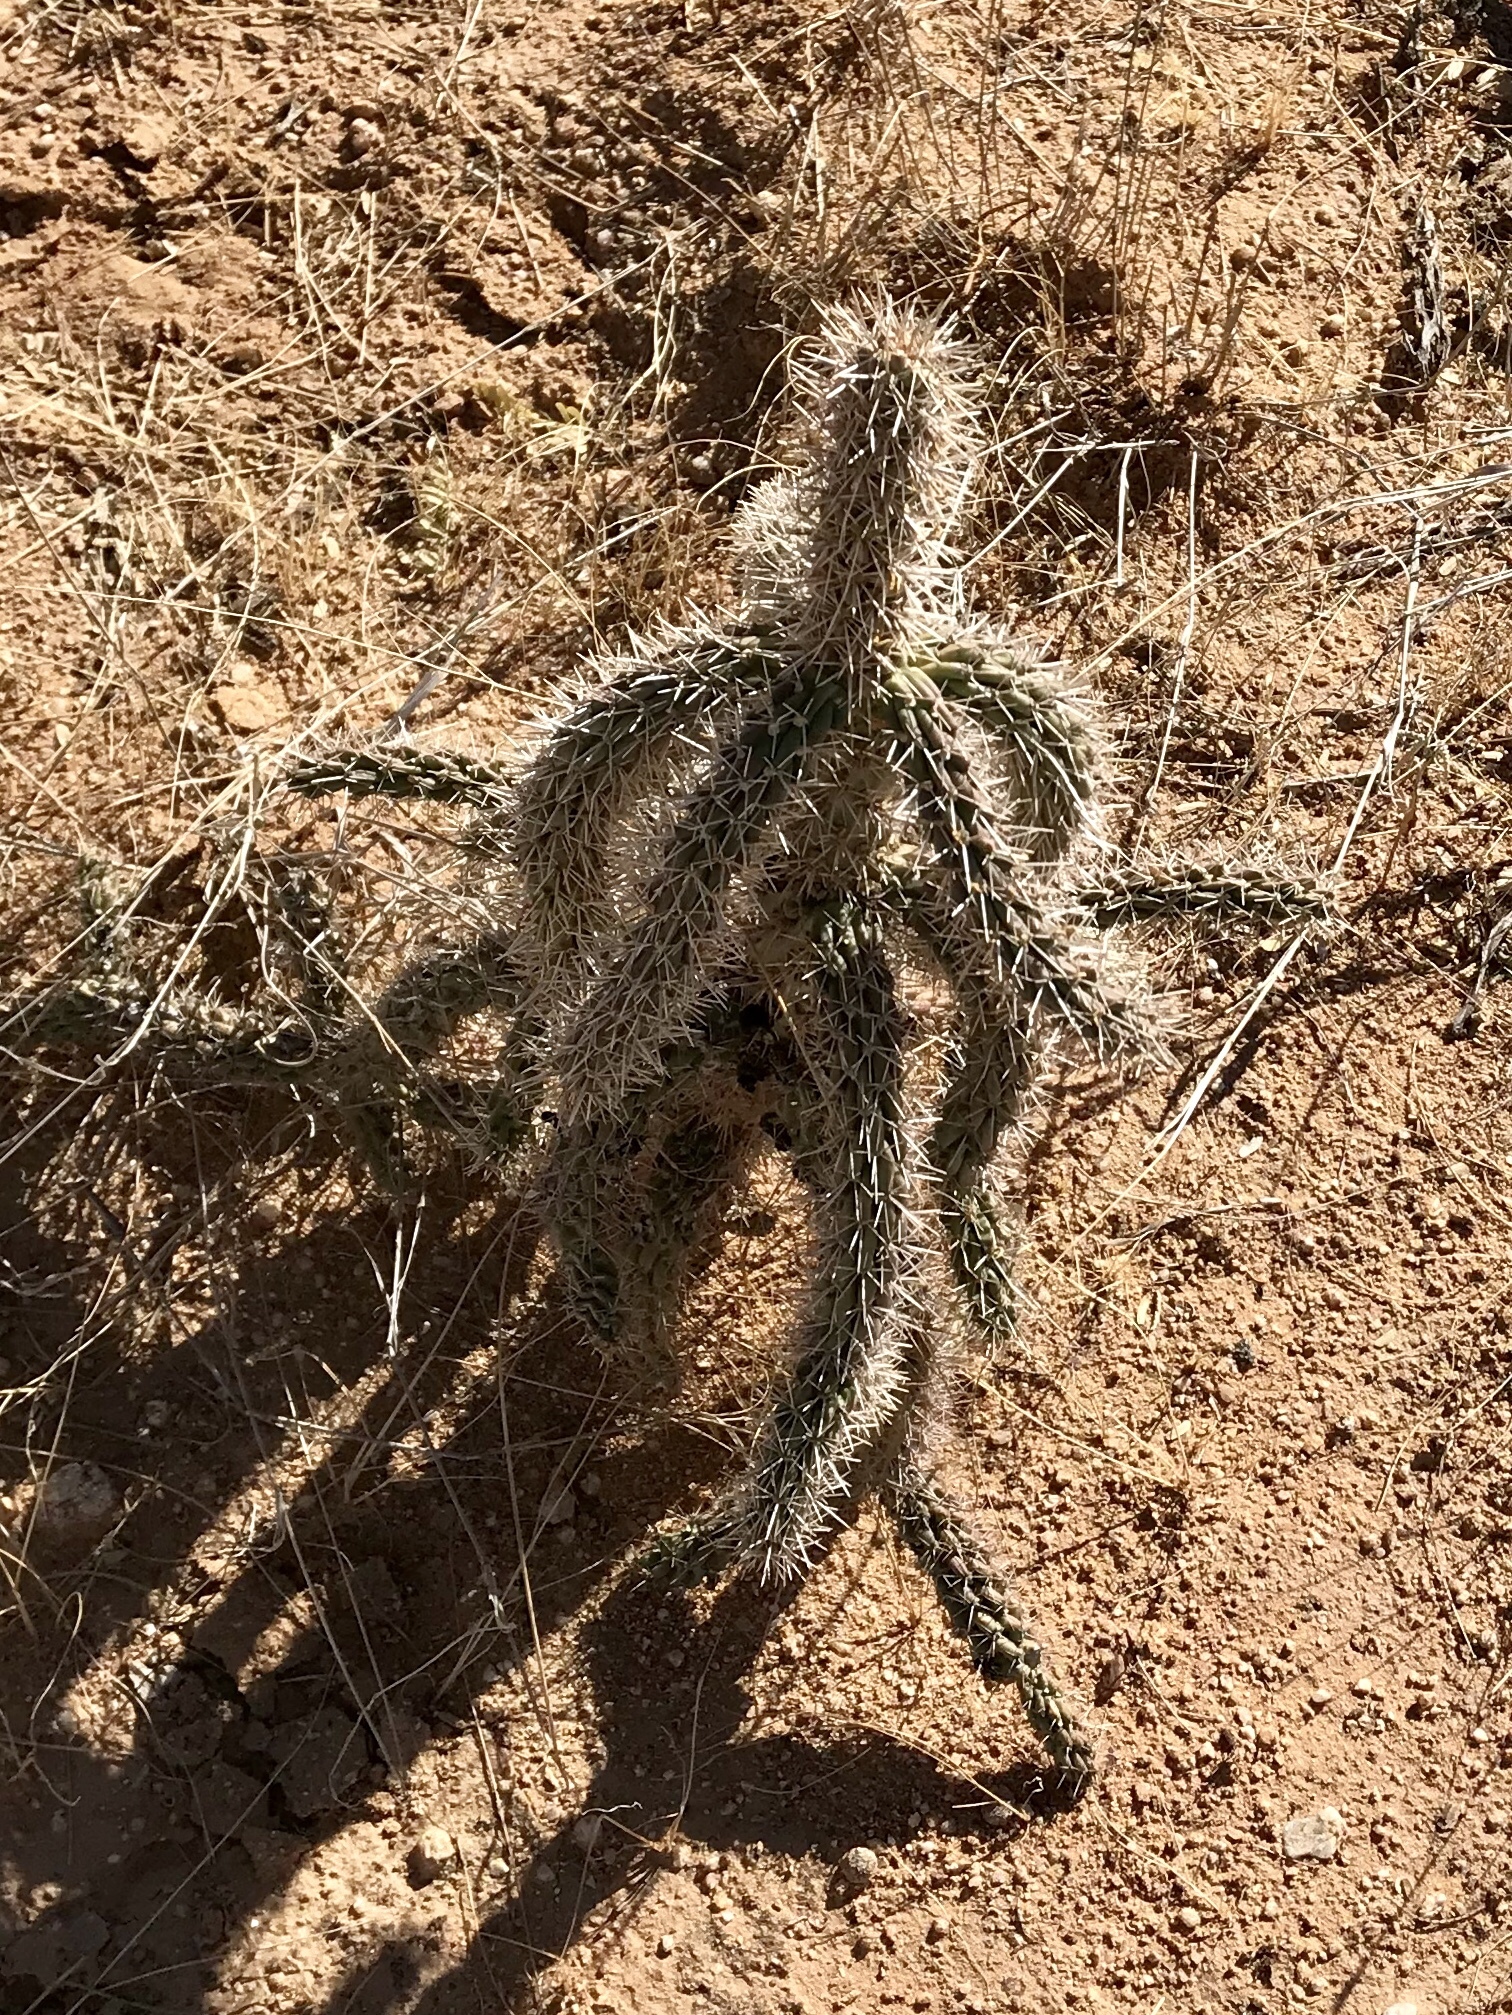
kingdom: Plantae
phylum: Tracheophyta
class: Magnoliopsida
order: Caryophyllales
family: Cactaceae
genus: Cylindropuntia
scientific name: Cylindropuntia imbricata
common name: Candelabrum cactus
